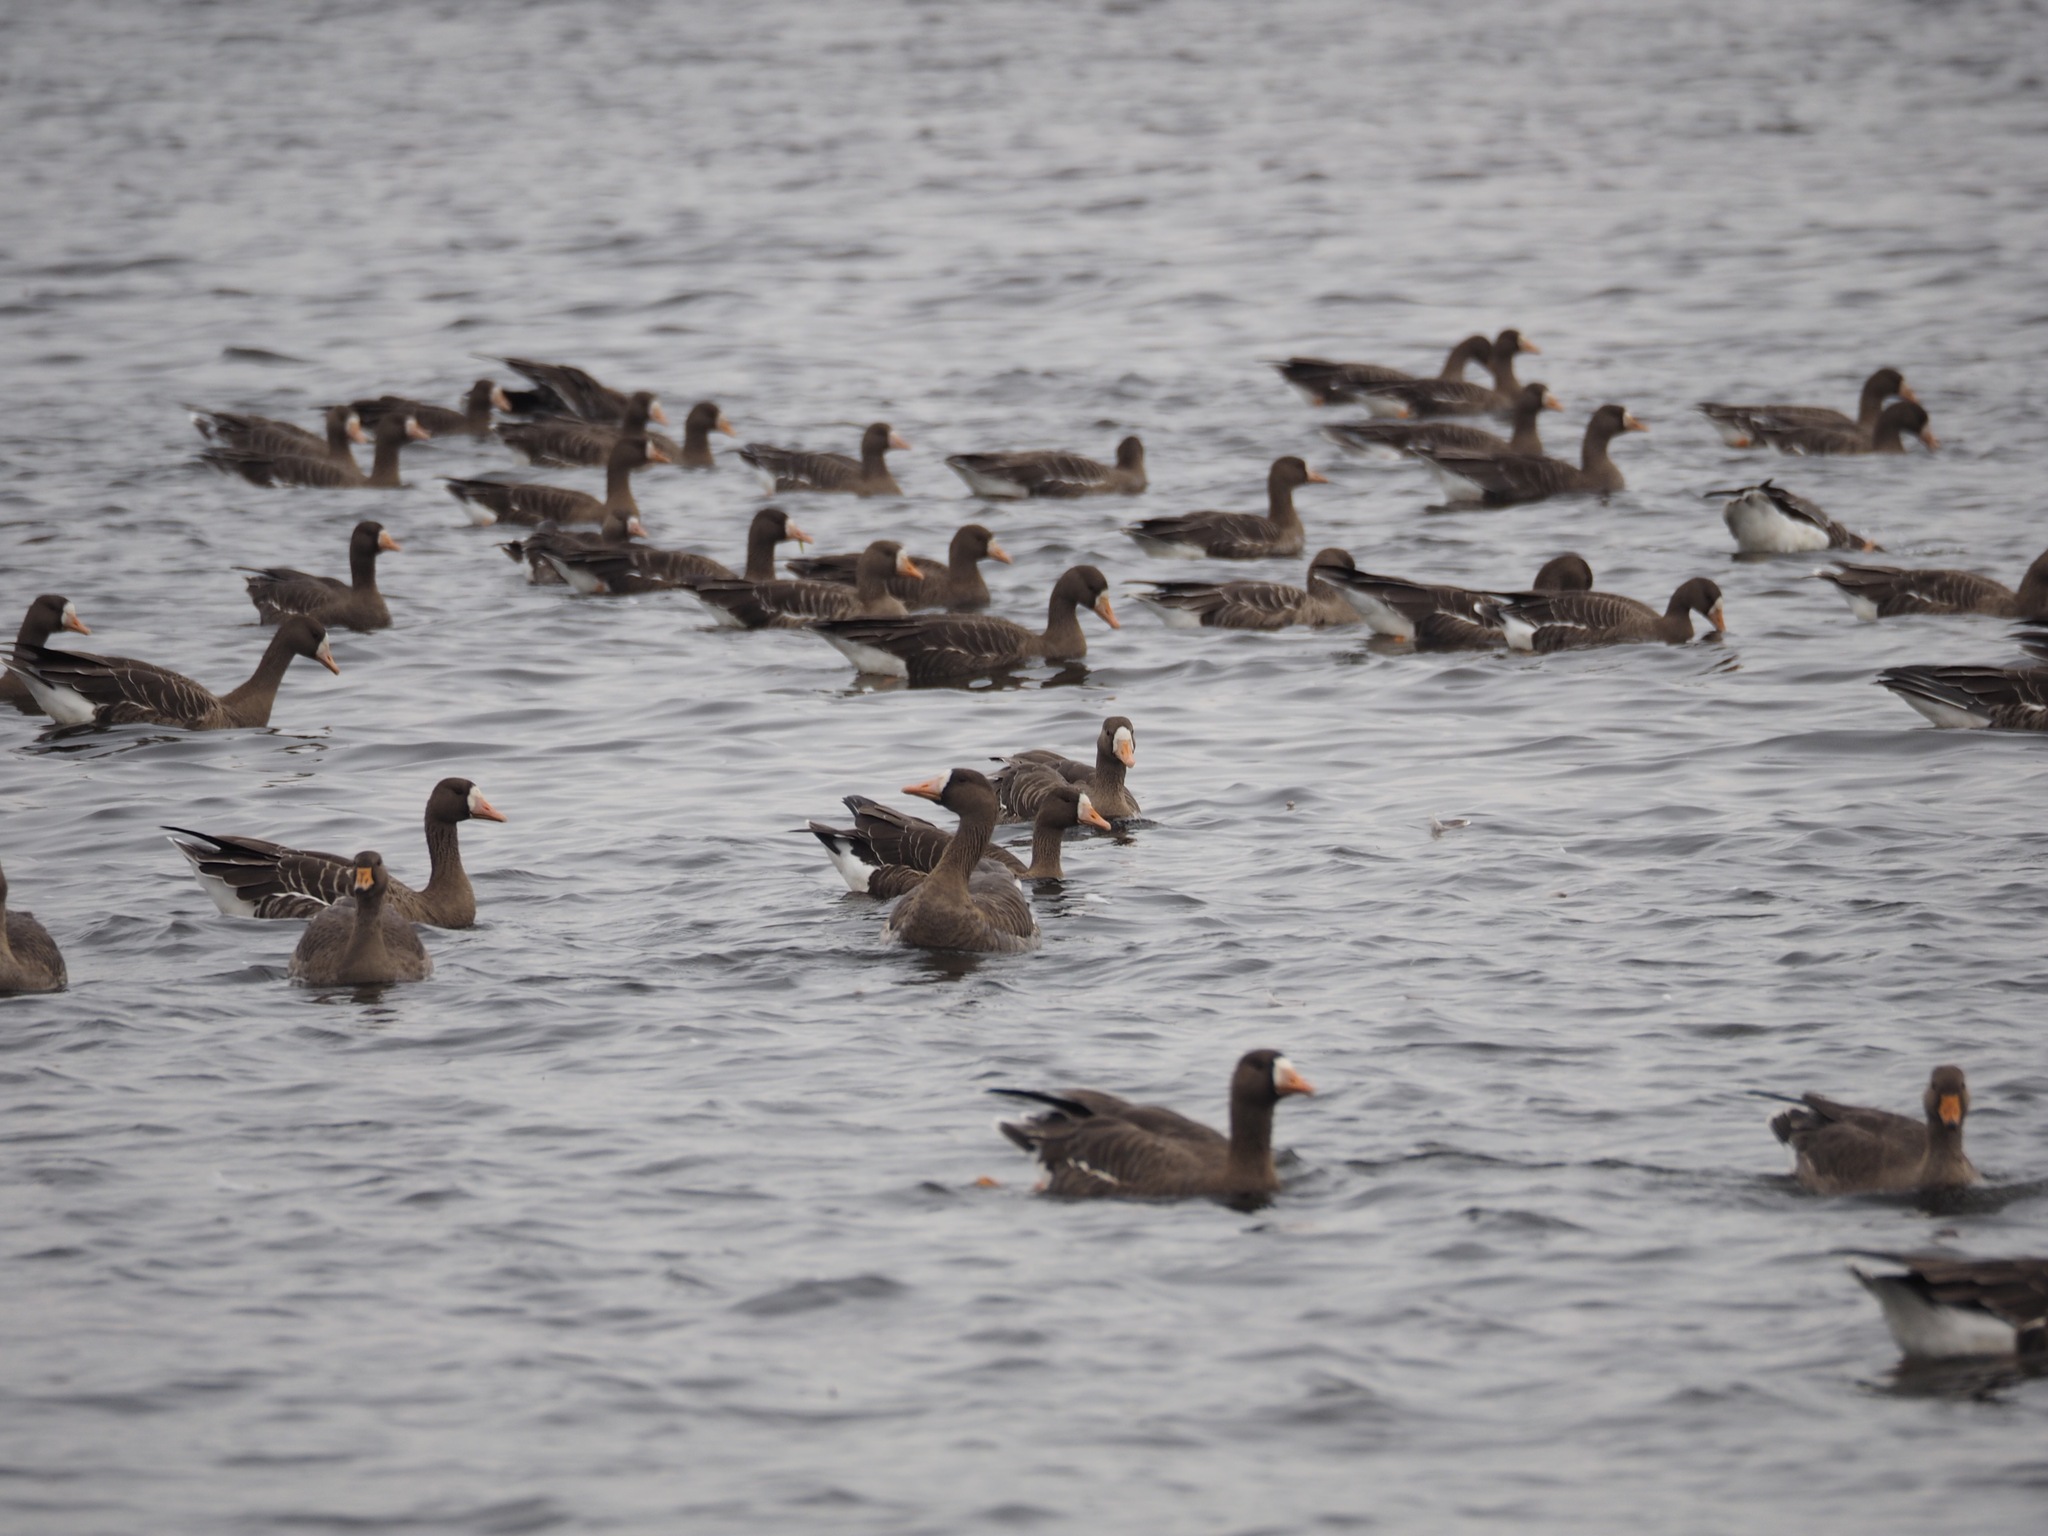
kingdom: Animalia
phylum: Chordata
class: Aves
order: Anseriformes
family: Anatidae
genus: Anser
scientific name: Anser albifrons
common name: Greater white-fronted goose
